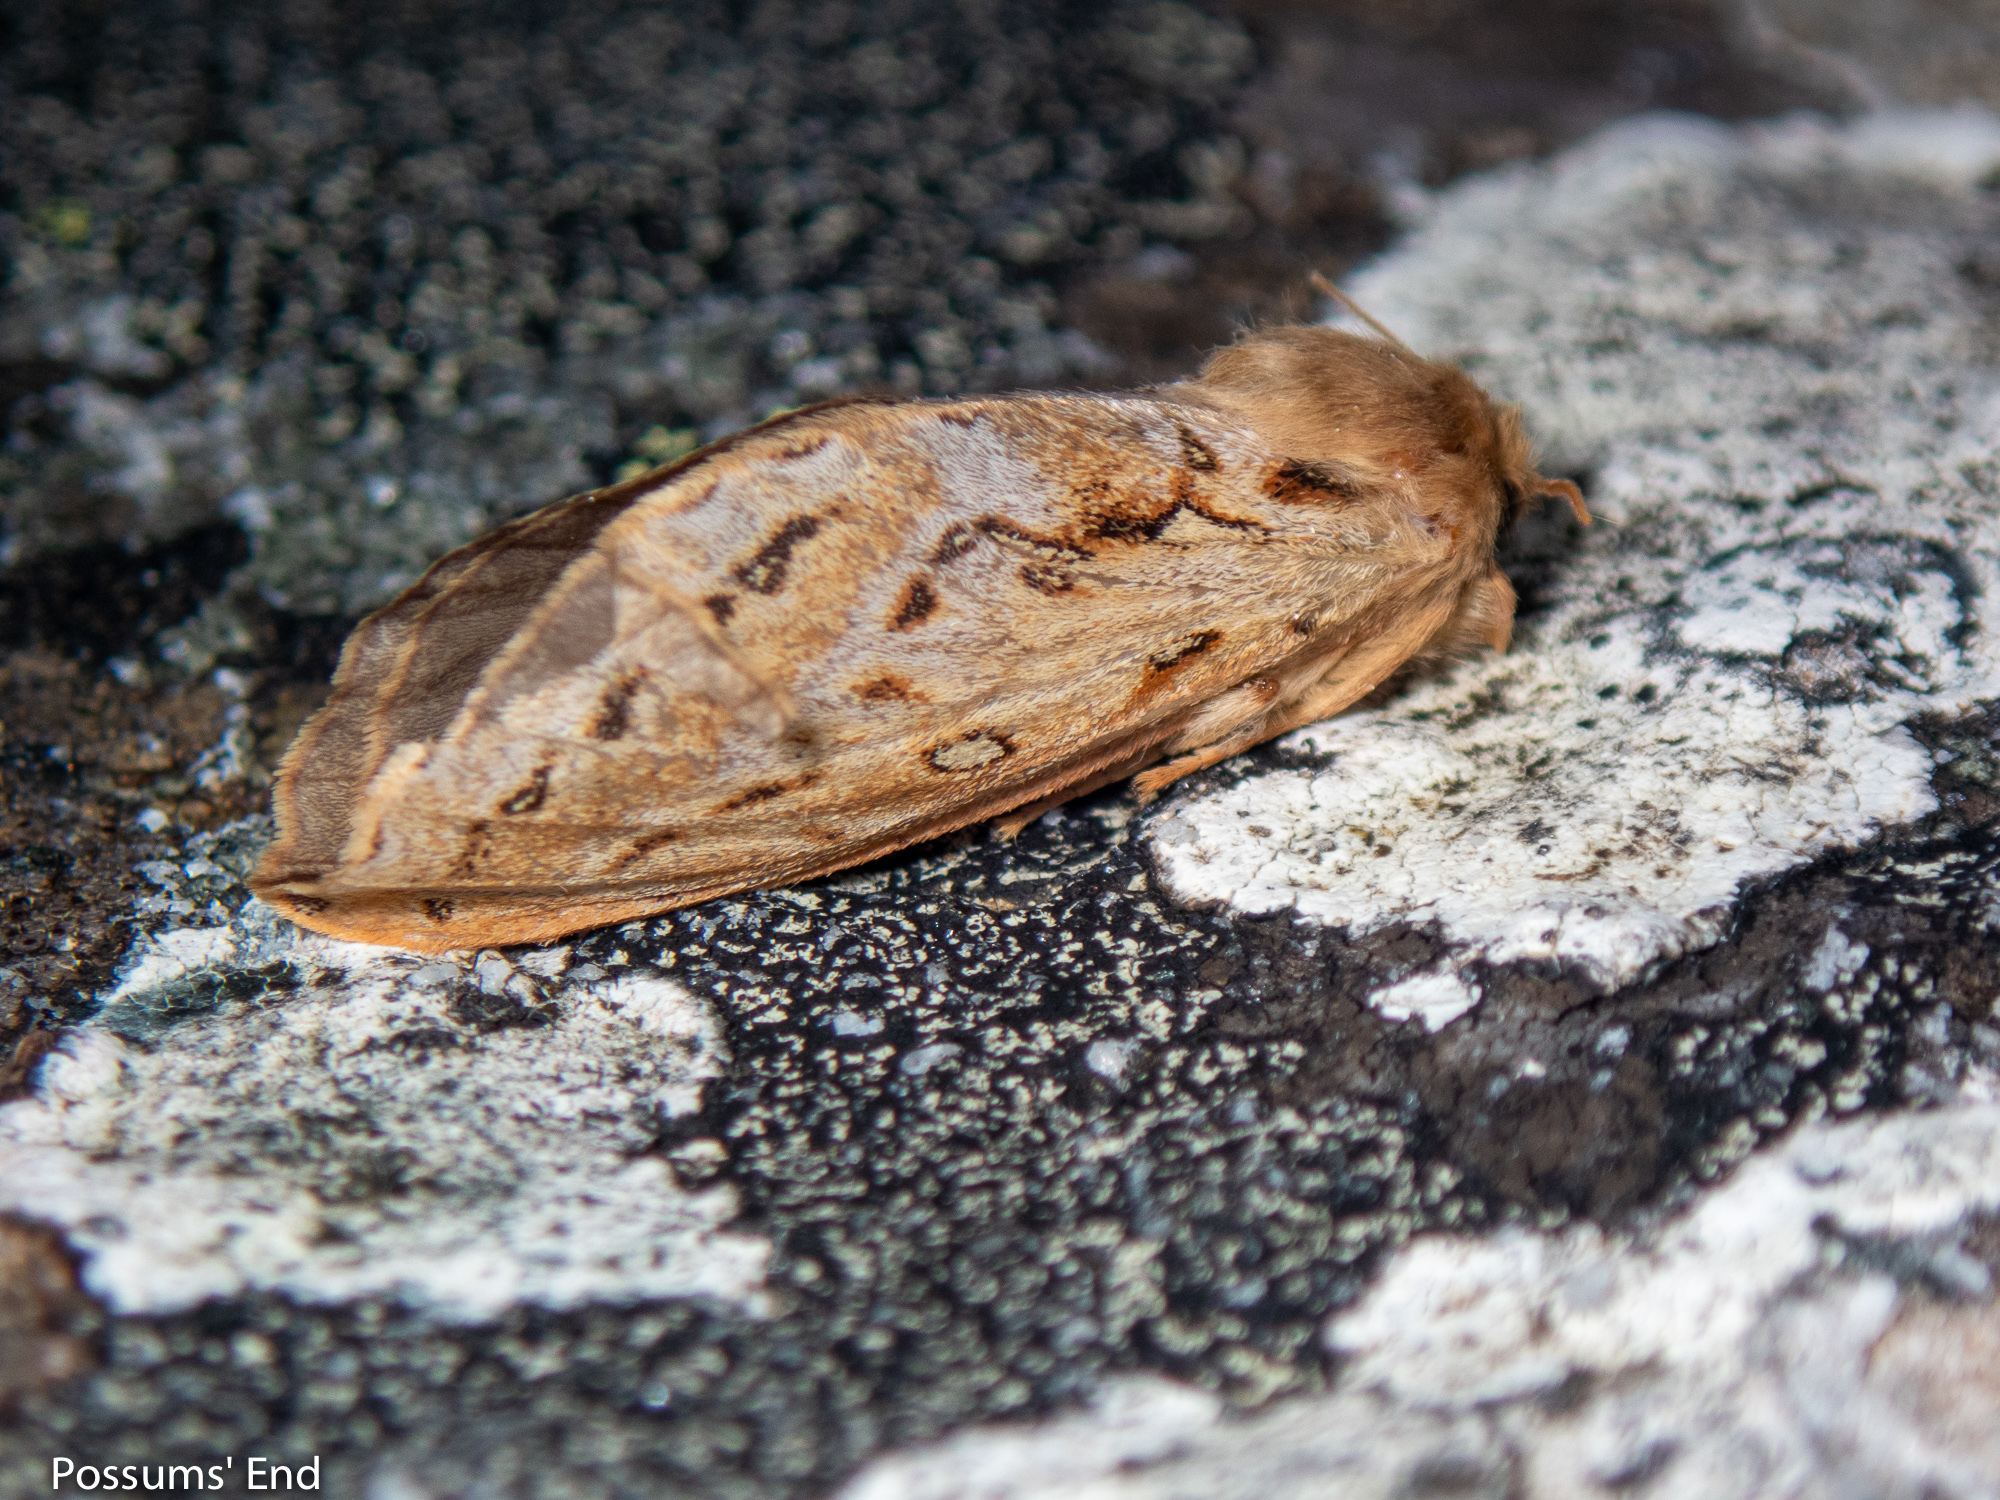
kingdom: Animalia
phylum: Arthropoda
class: Insecta
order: Lepidoptera
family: Hepialidae
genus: Dioxycanus
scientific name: Dioxycanus fusca
